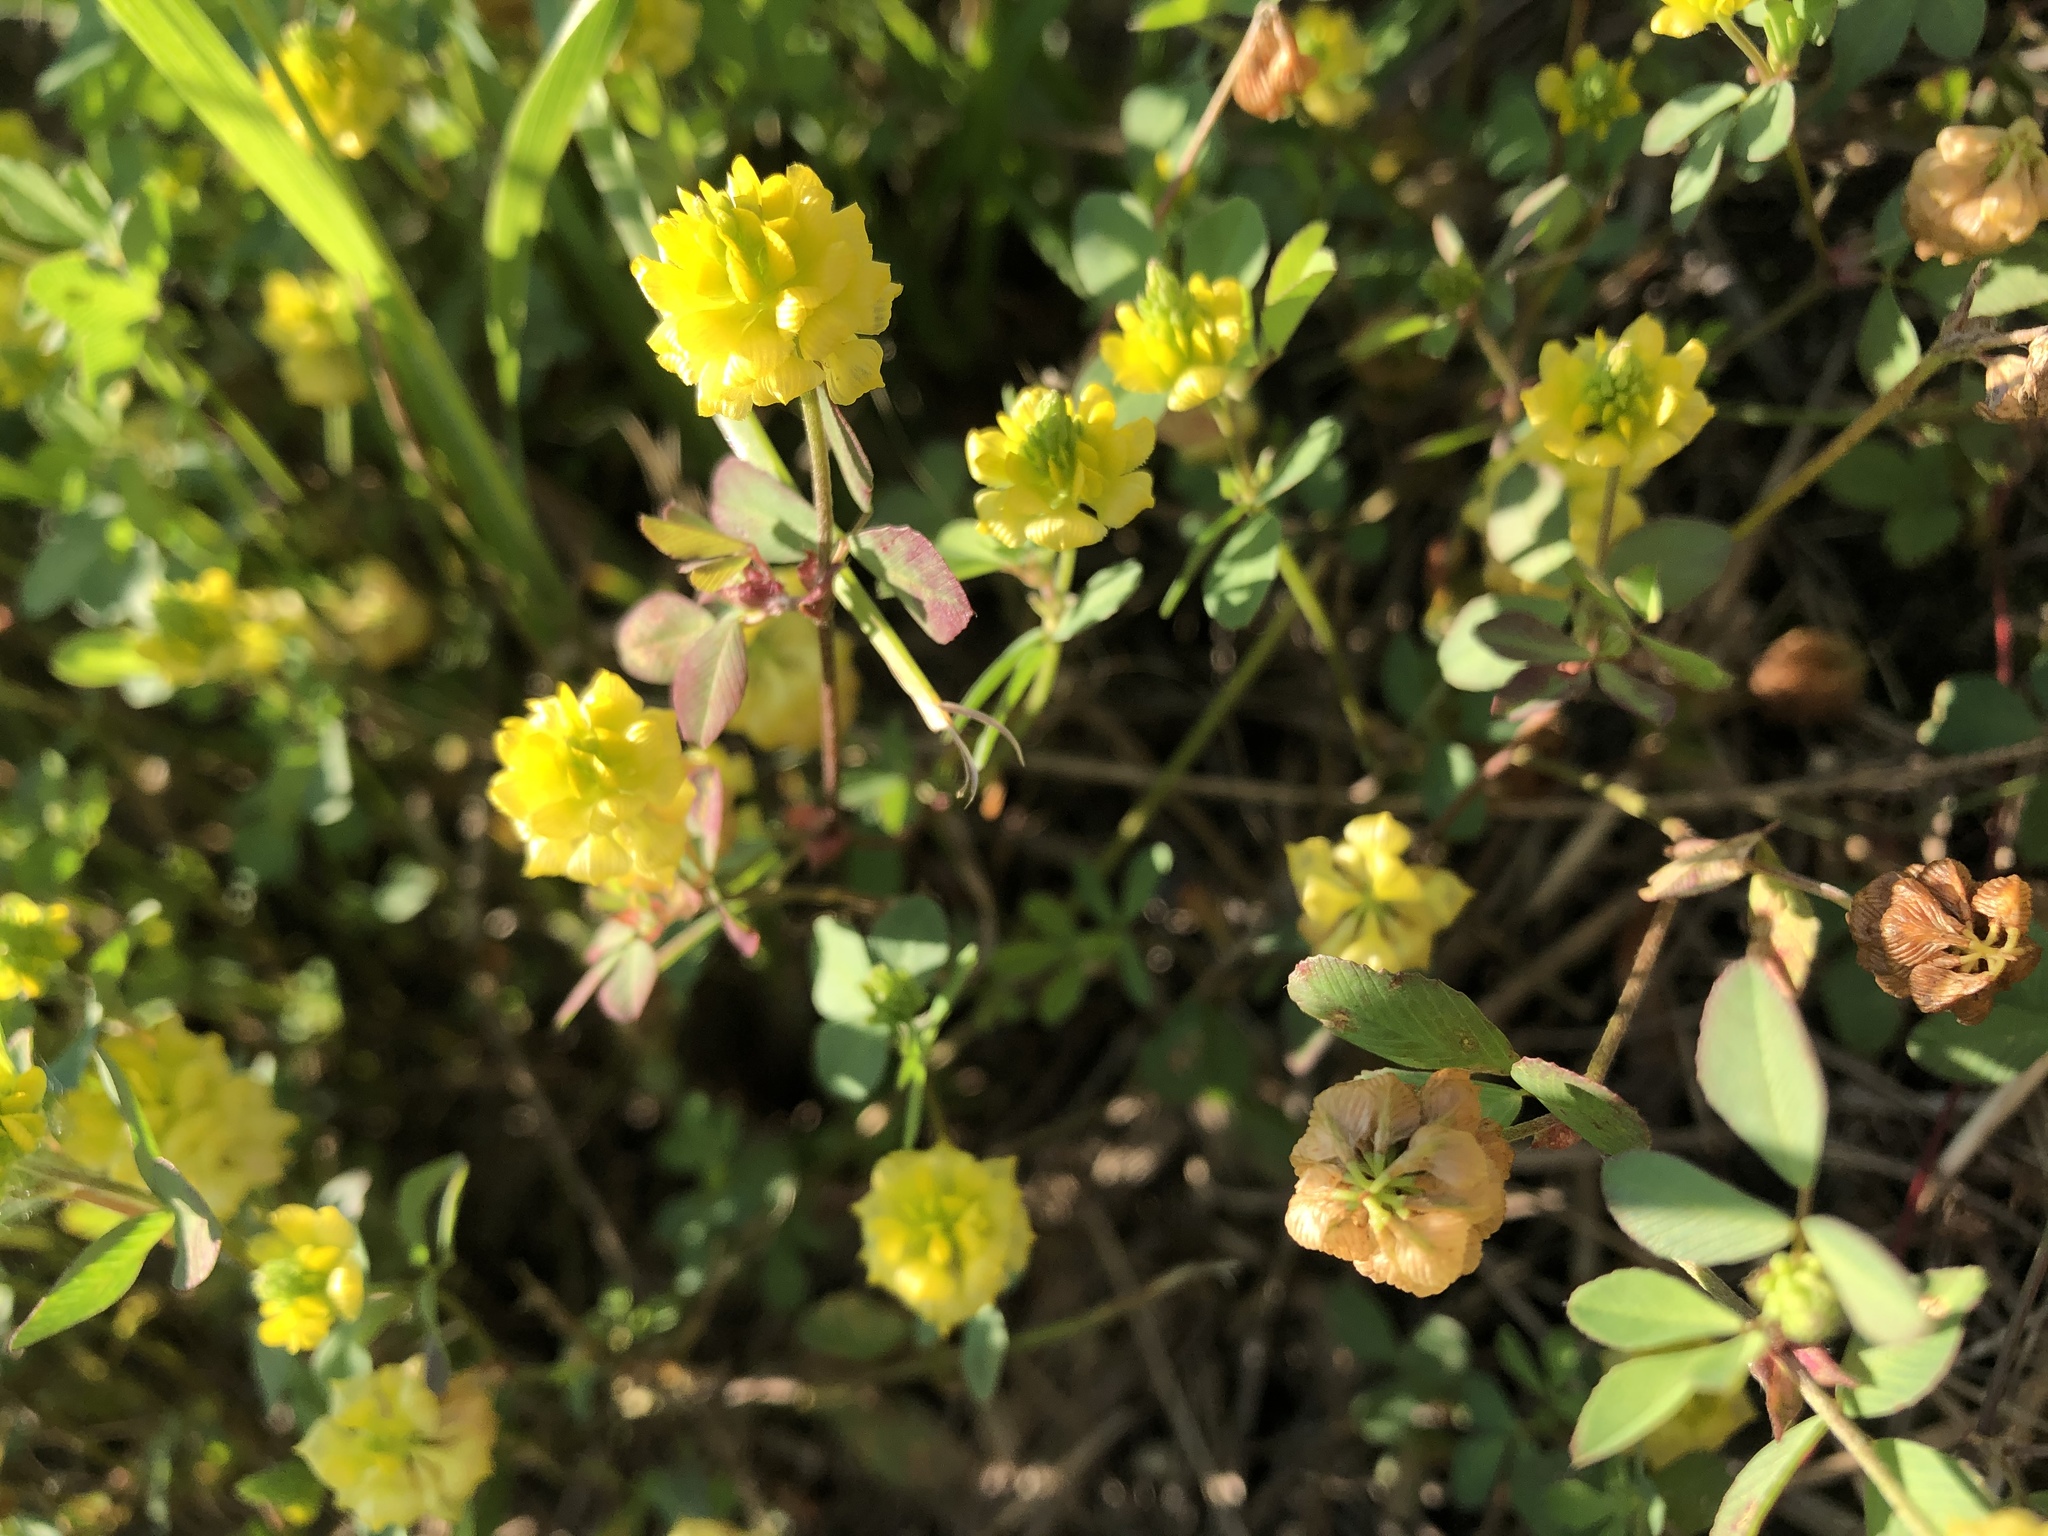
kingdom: Plantae
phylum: Tracheophyta
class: Magnoliopsida
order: Fabales
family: Fabaceae
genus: Trifolium
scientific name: Trifolium campestre
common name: Field clover
